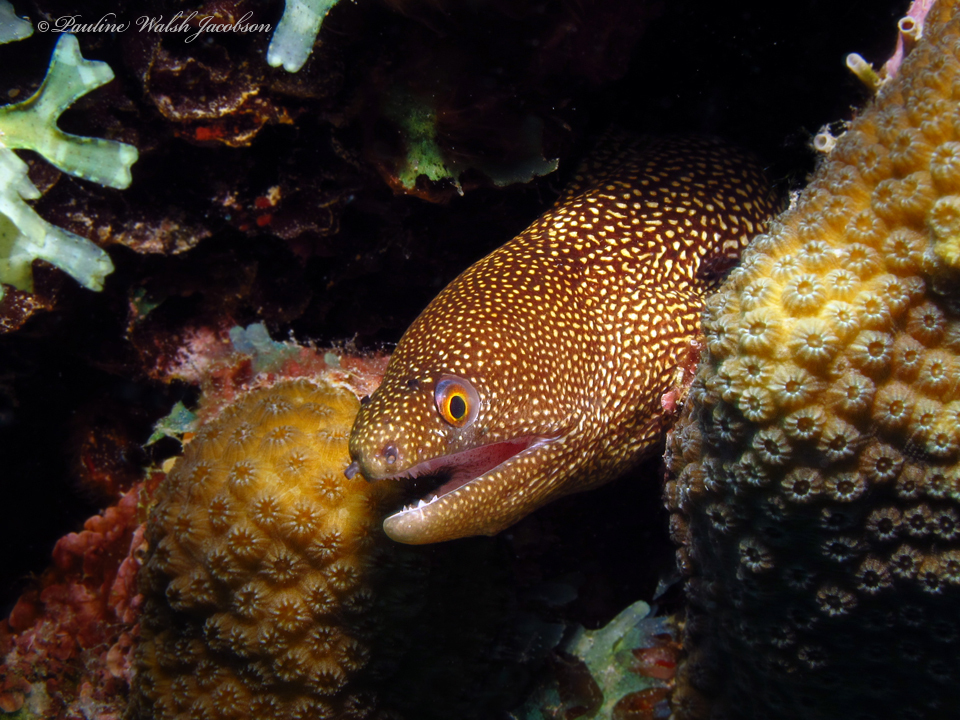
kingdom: Animalia
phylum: Chordata
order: Anguilliformes
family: Muraenidae
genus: Gymnothorax
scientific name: Gymnothorax miliaris
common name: Goldentail moray
